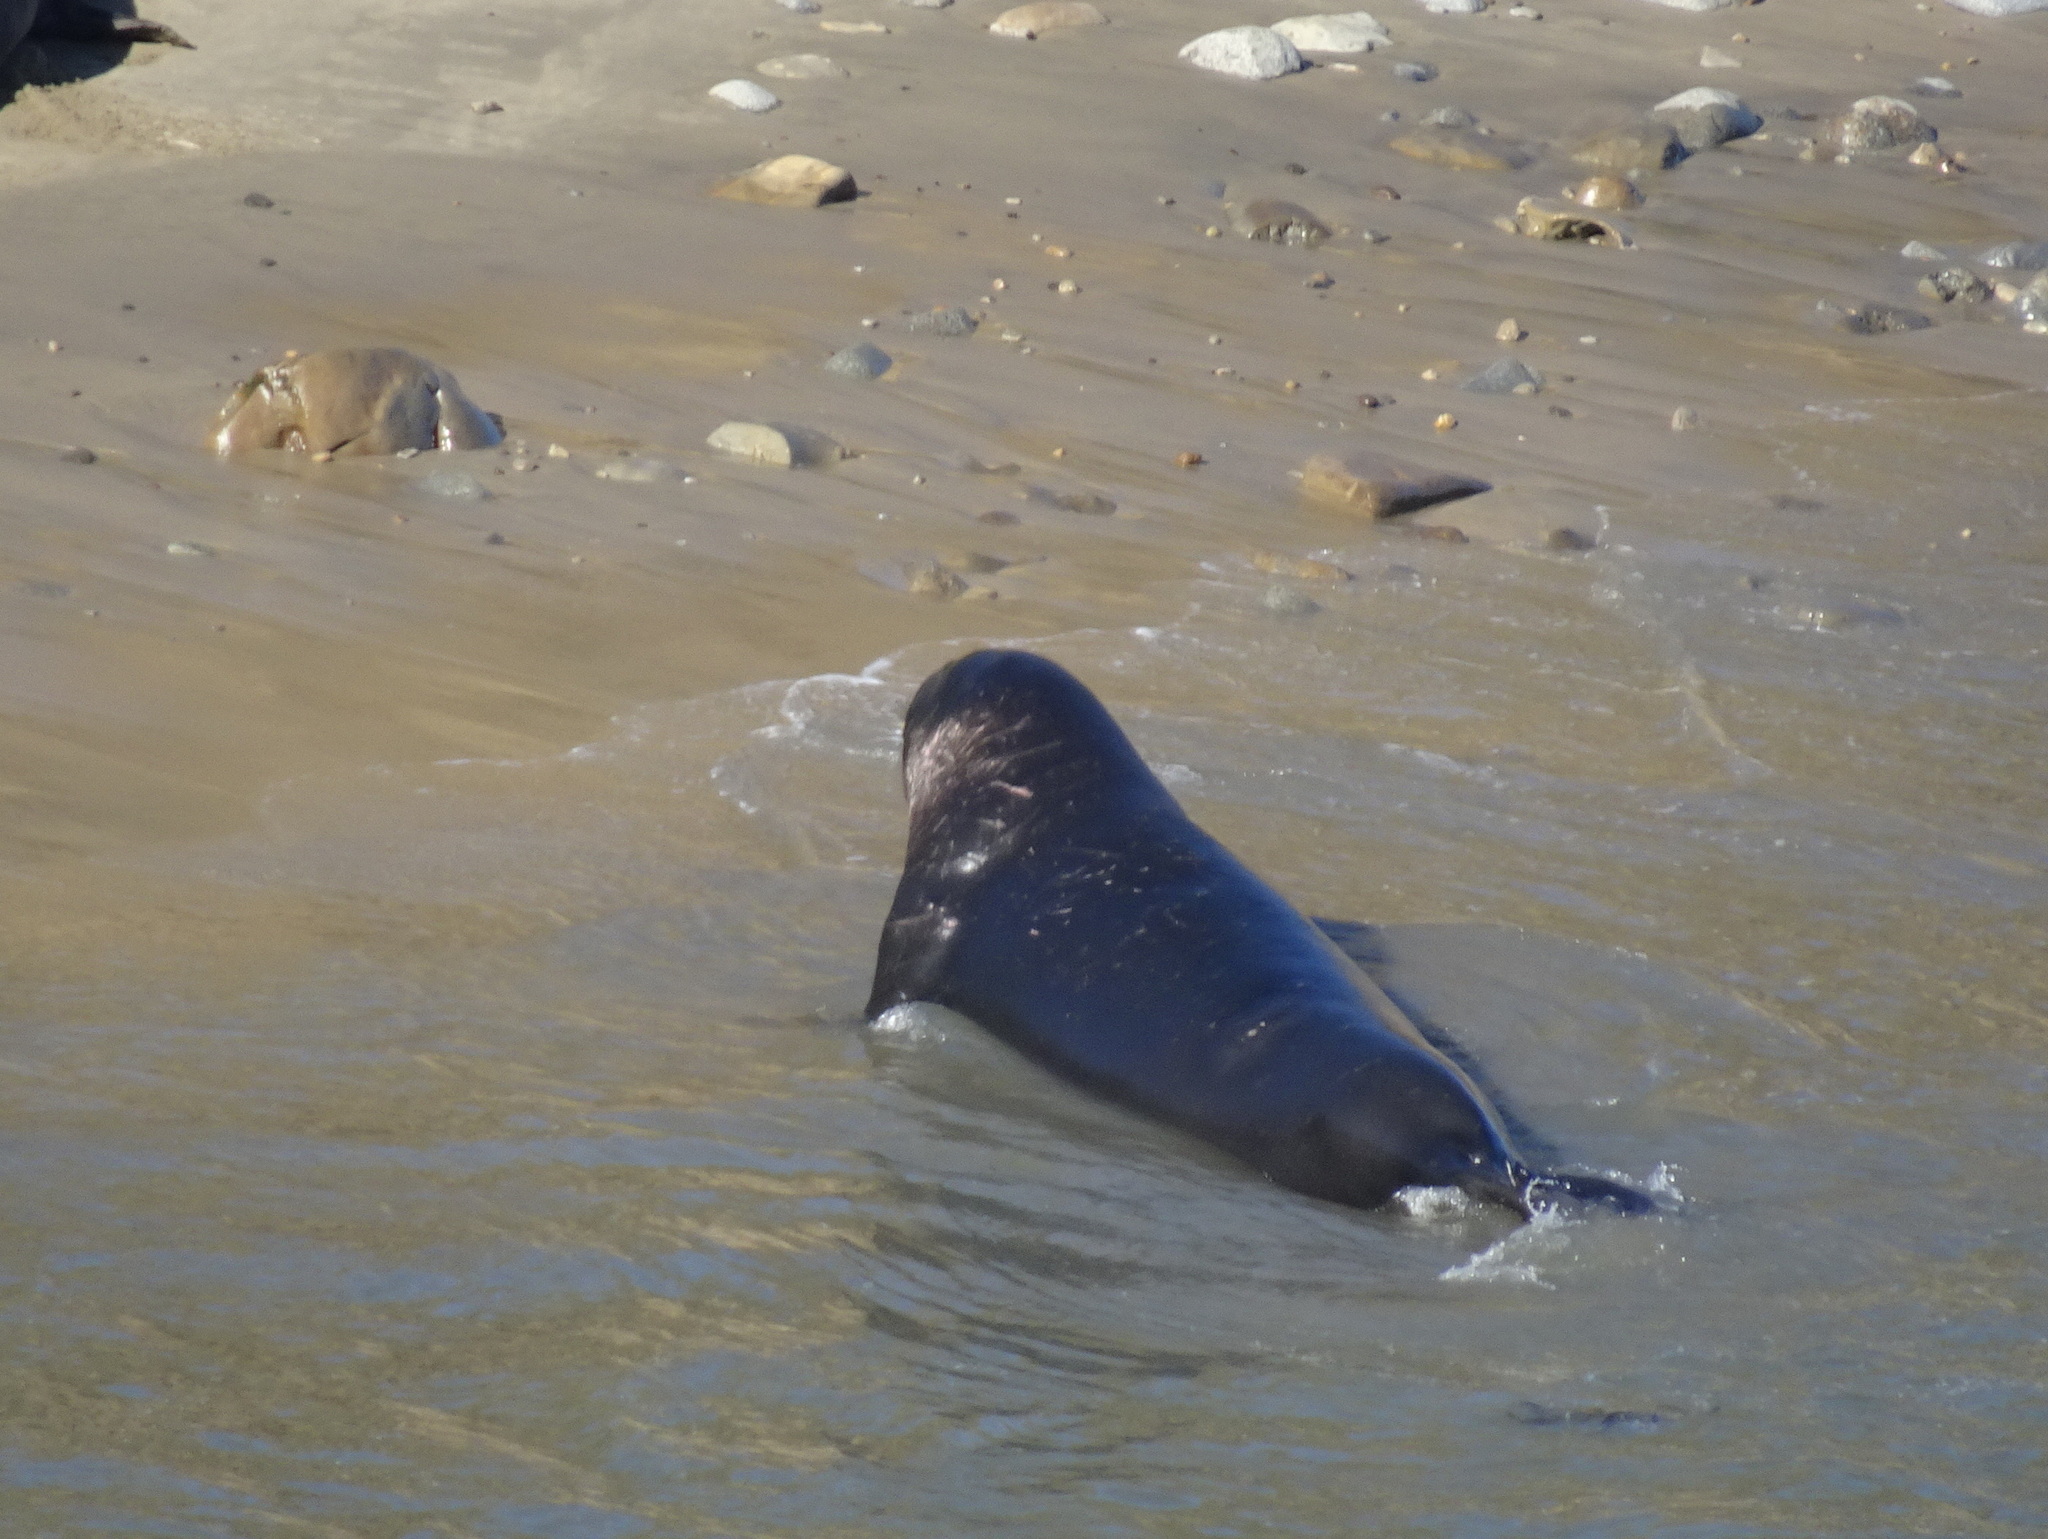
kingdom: Animalia
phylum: Chordata
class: Mammalia
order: Carnivora
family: Phocidae
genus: Mirounga
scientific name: Mirounga angustirostris
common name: Northern elephant seal
